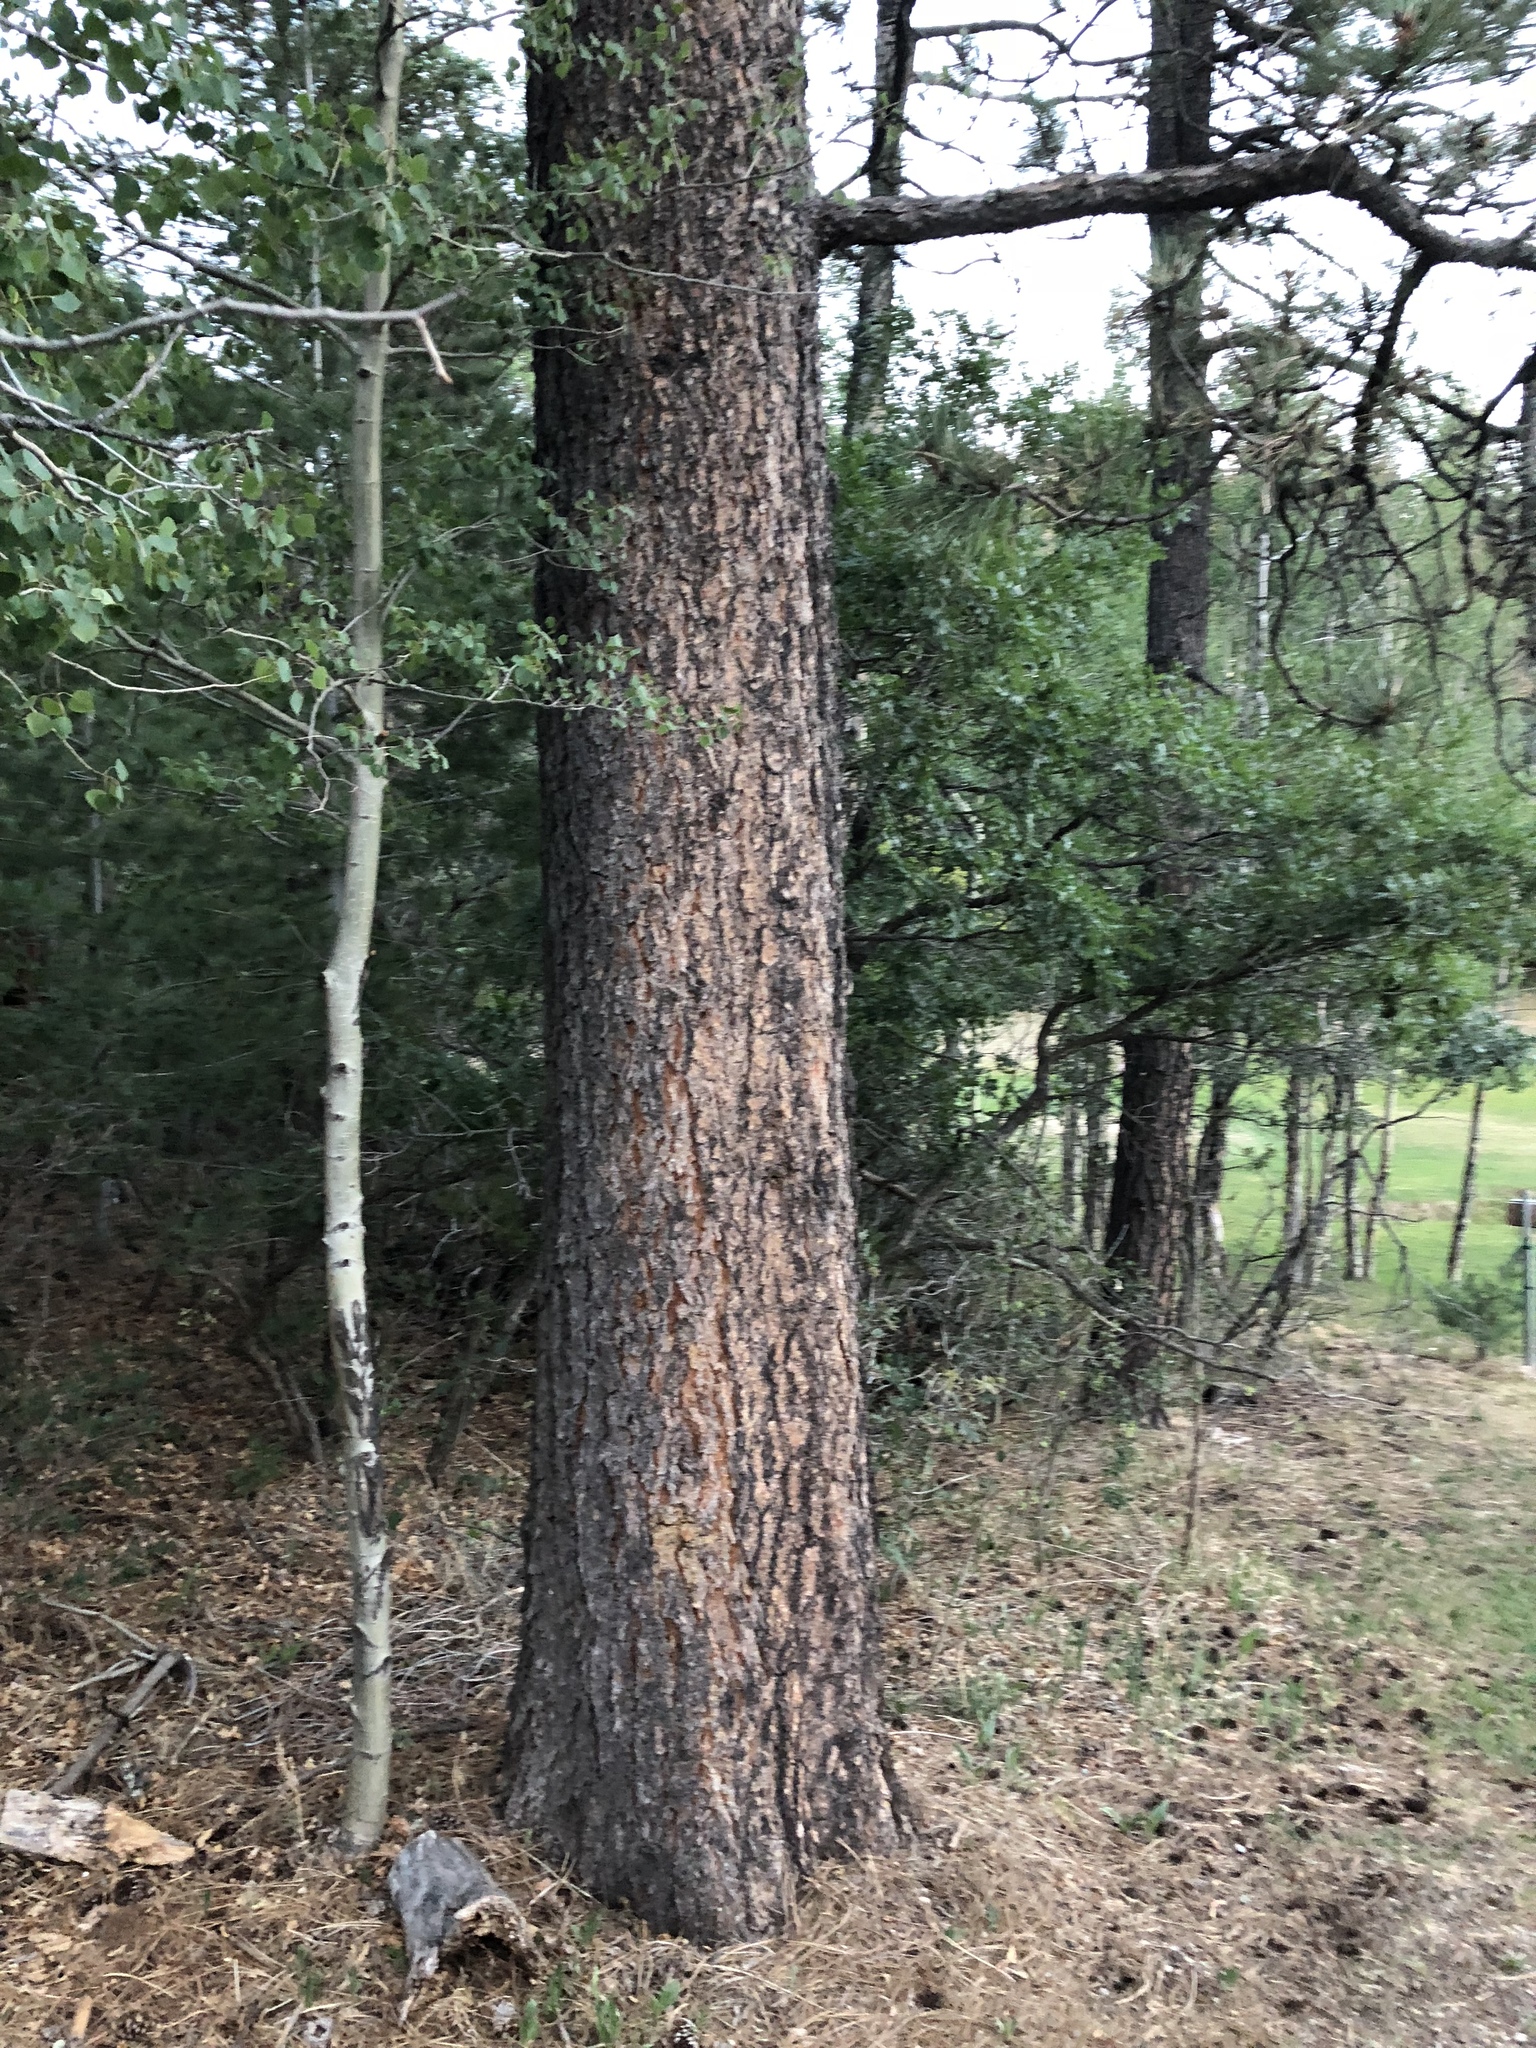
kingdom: Plantae
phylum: Tracheophyta
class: Pinopsida
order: Pinales
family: Pinaceae
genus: Pinus
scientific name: Pinus ponderosa
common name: Western yellow-pine
